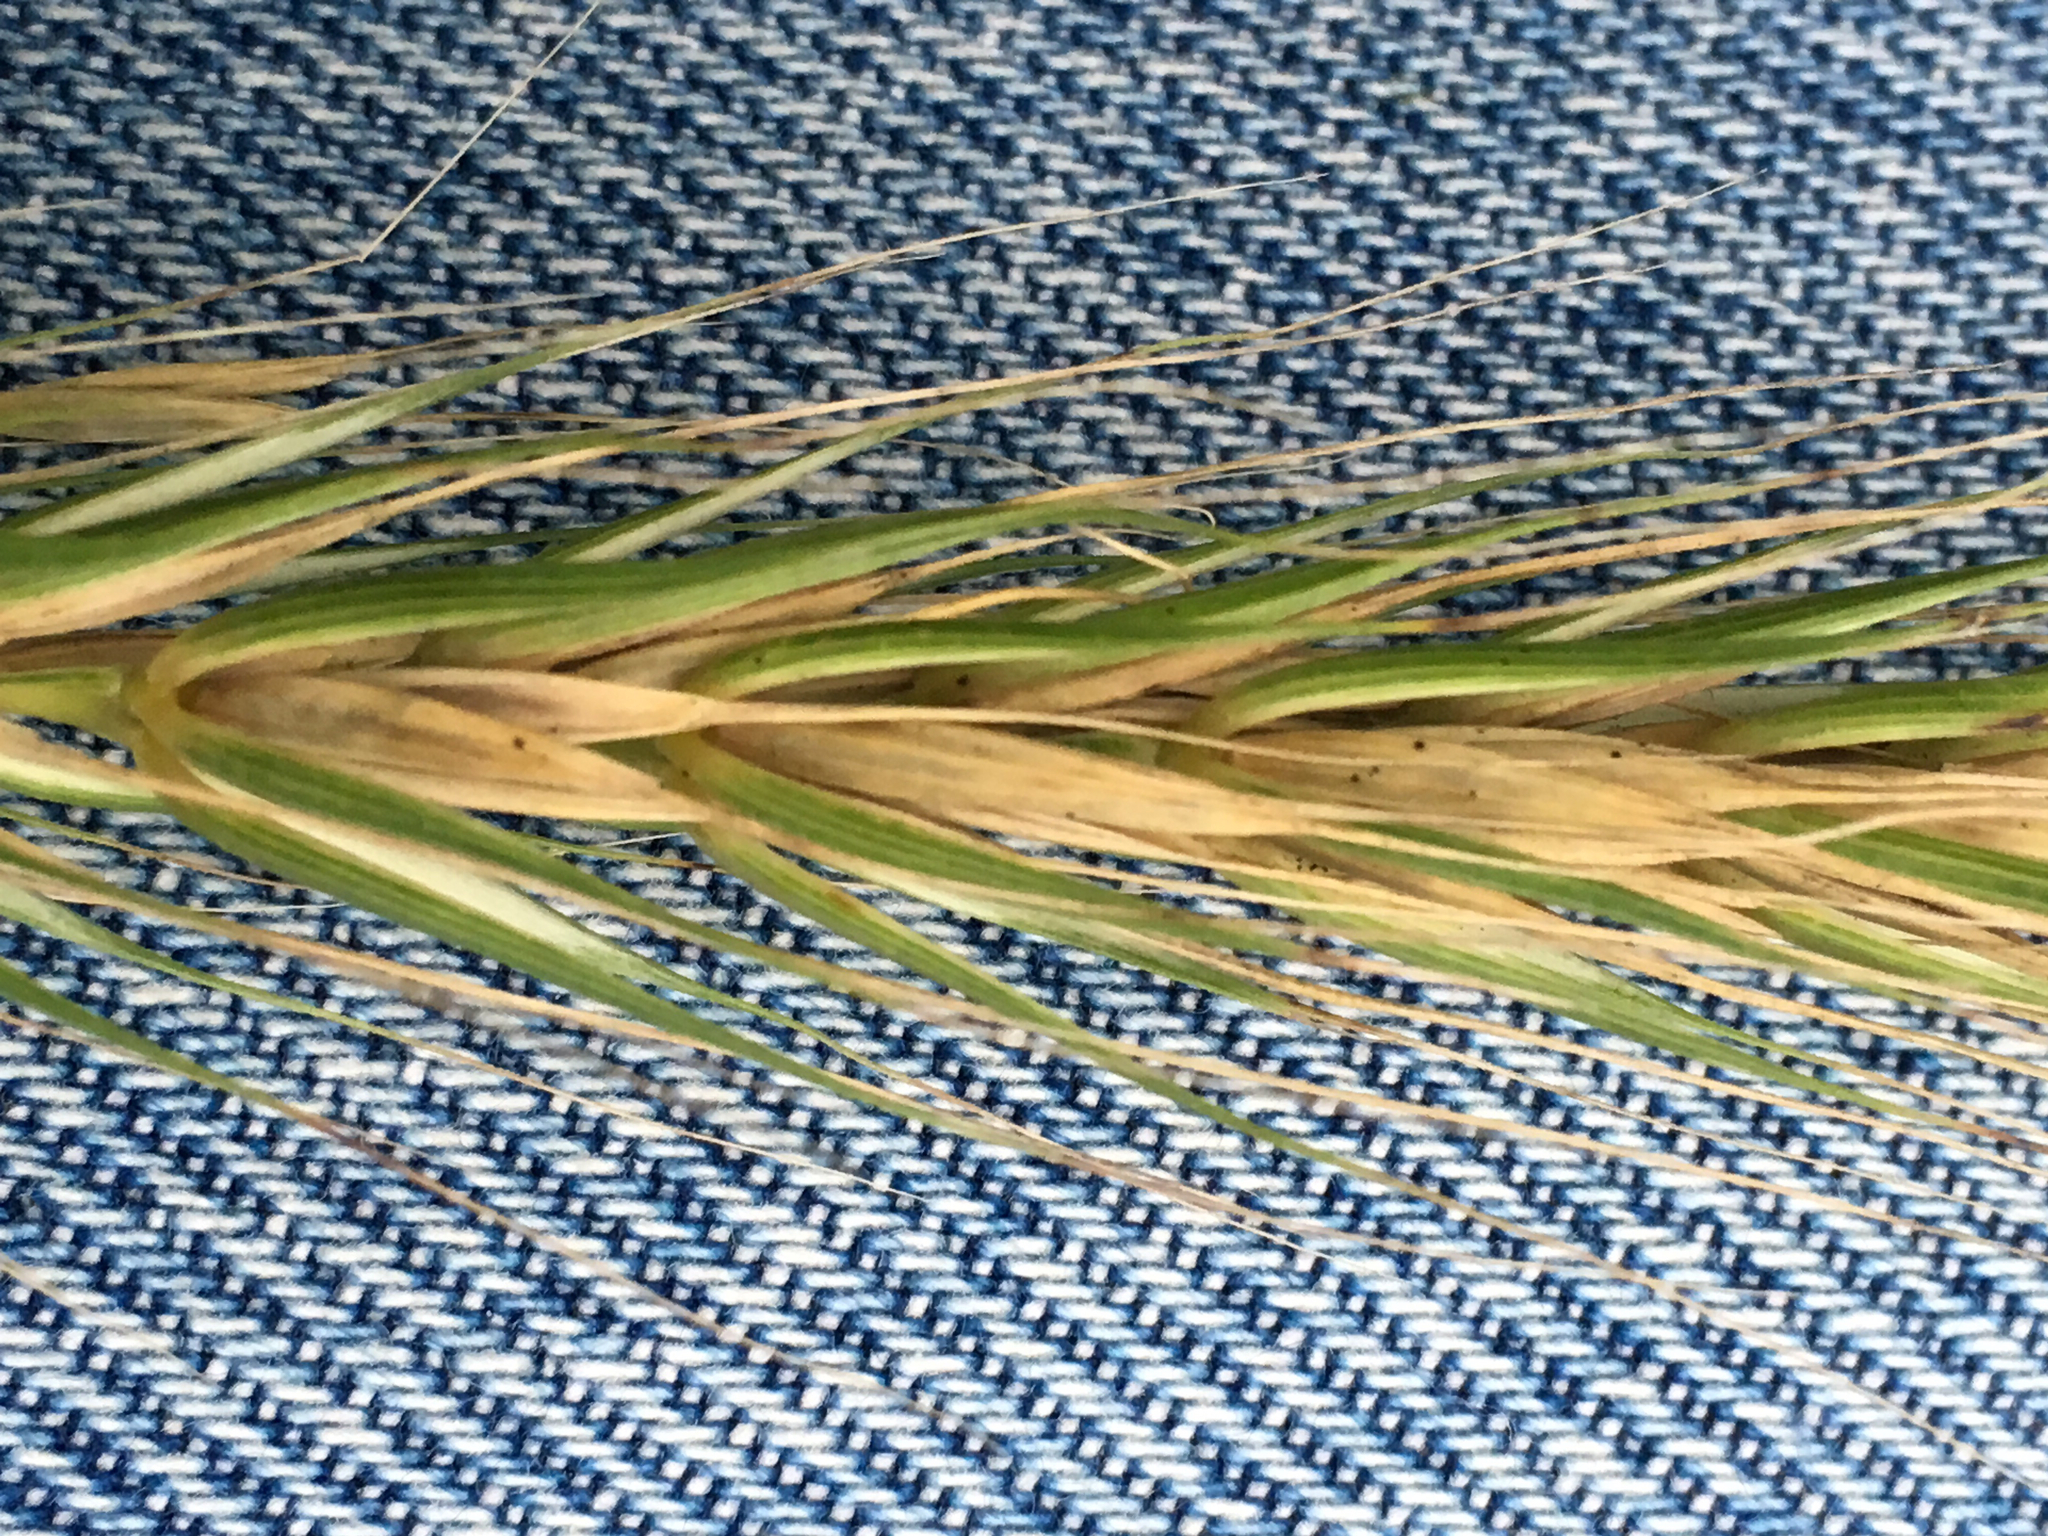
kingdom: Plantae
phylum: Tracheophyta
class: Liliopsida
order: Poales
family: Poaceae
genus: Elymus
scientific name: Elymus riparius
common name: Eastern riverbank wild rye
